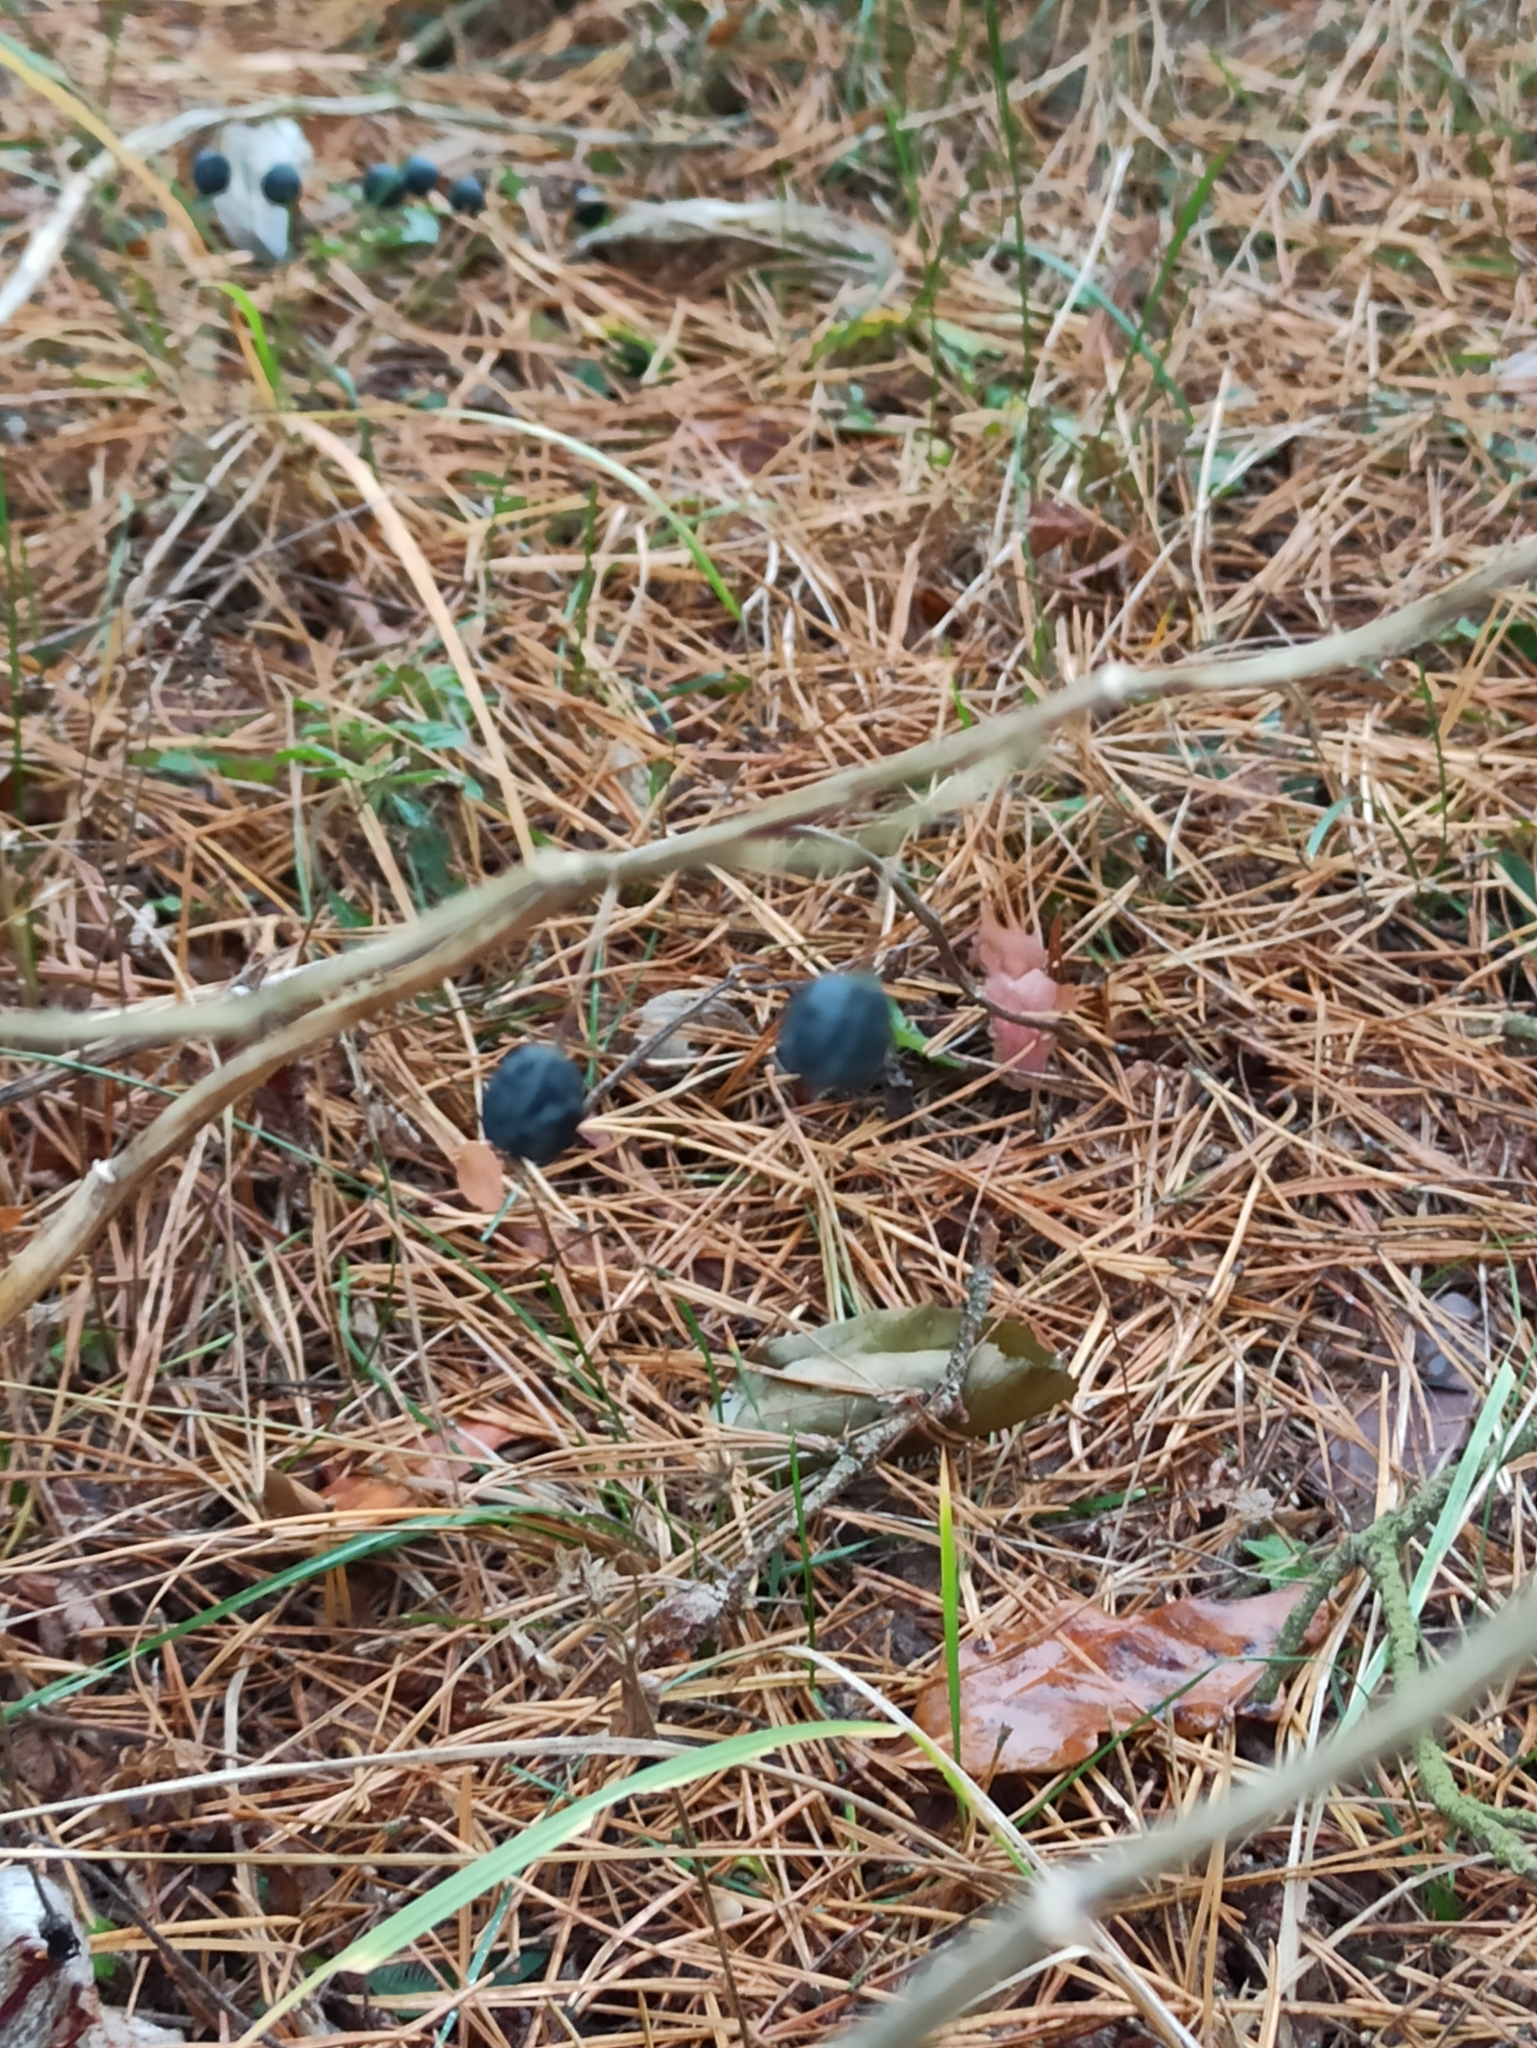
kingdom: Plantae
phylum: Tracheophyta
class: Liliopsida
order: Asparagales
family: Asparagaceae
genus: Polygonatum
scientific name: Polygonatum odoratum
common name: Angular solomon's-seal
